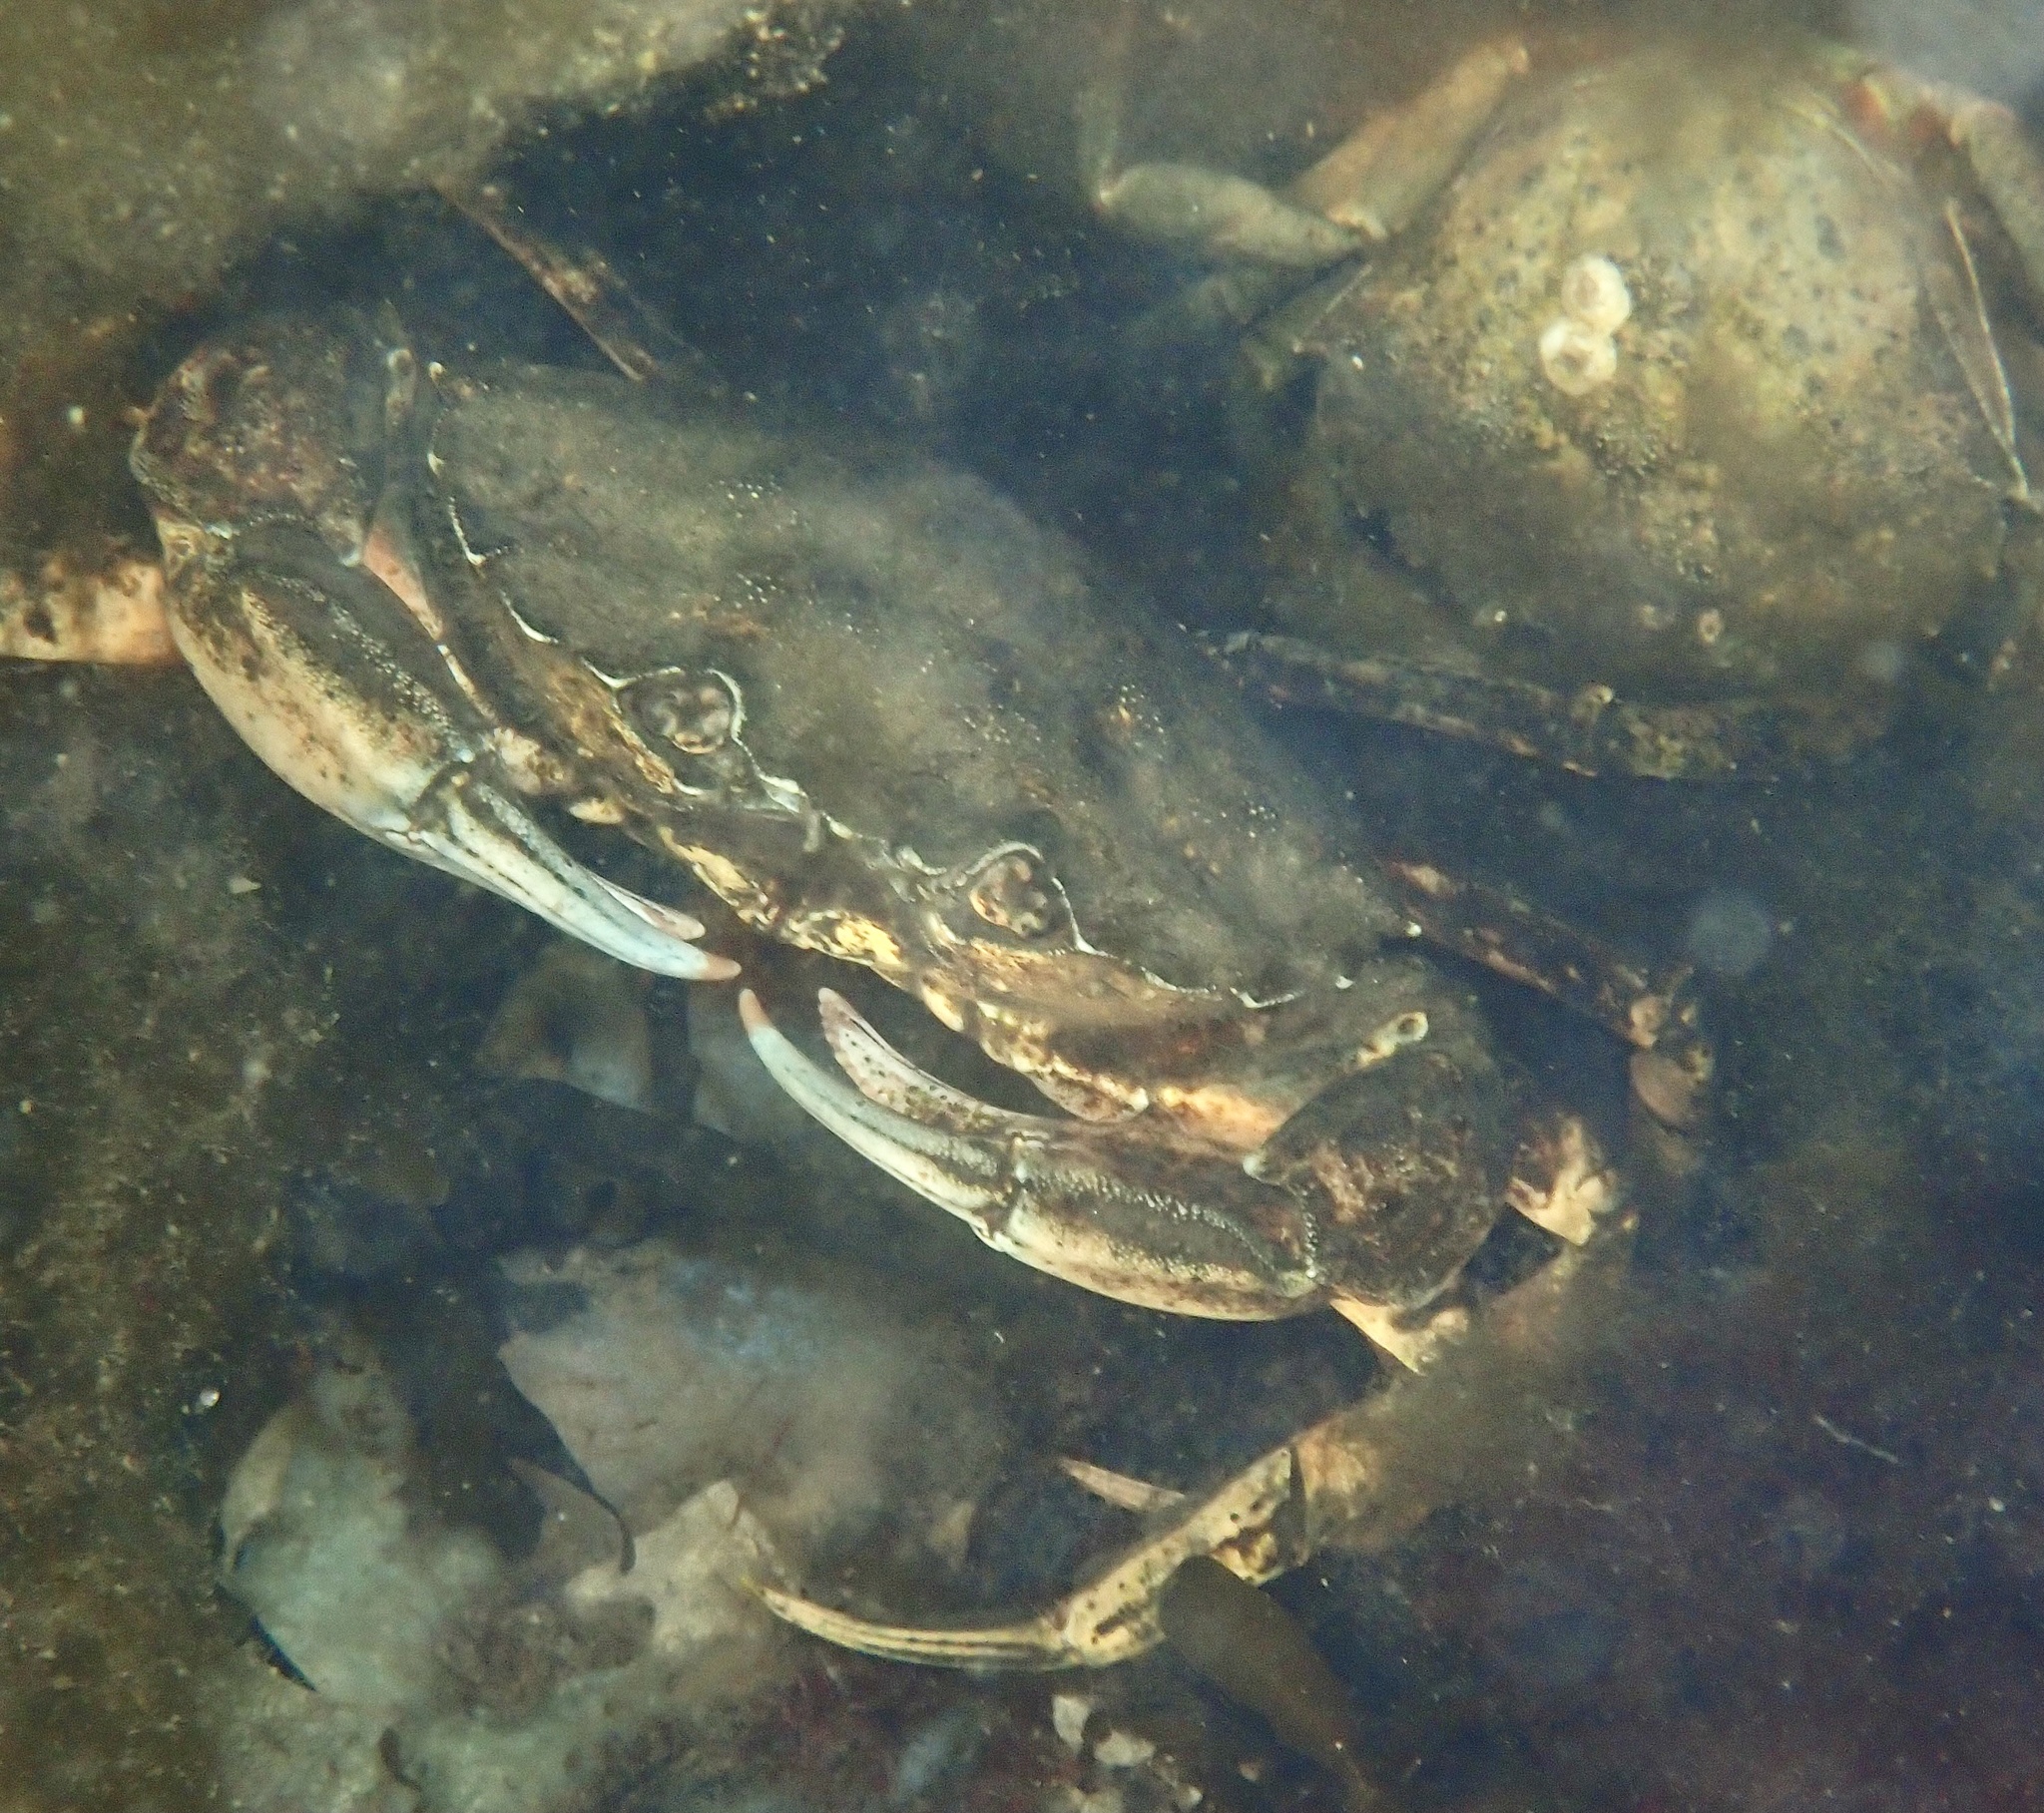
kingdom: Animalia
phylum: Arthropoda
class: Malacostraca
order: Decapoda
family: Carcinidae
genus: Carcinus
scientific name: Carcinus maenas
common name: European green crab
